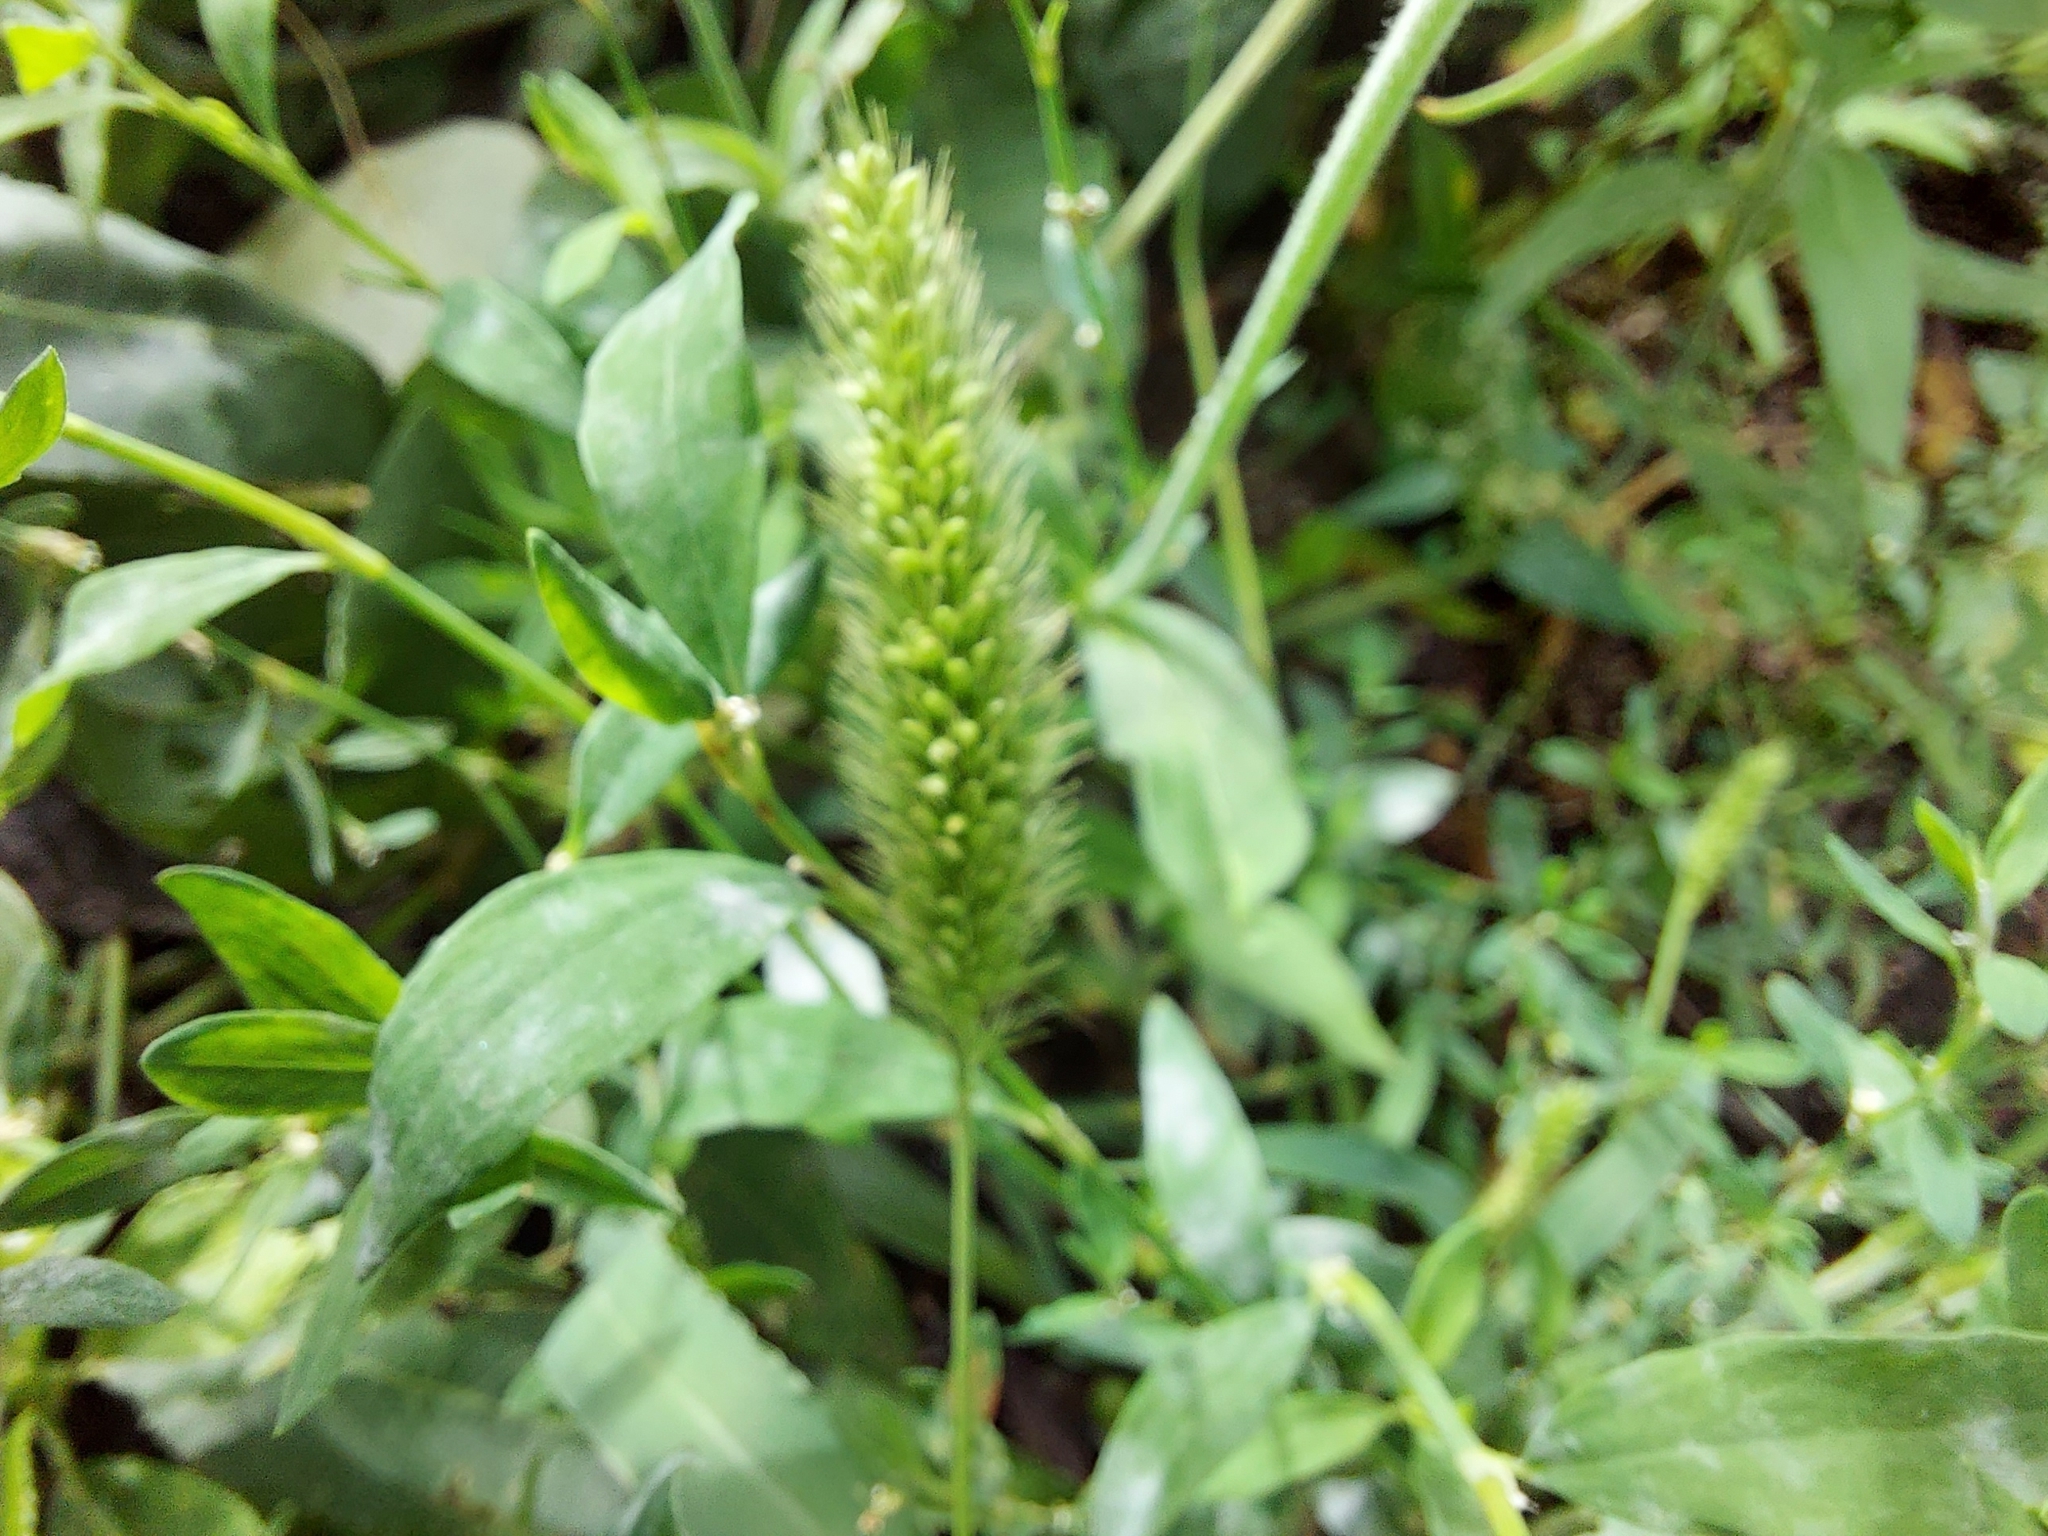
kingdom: Plantae
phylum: Tracheophyta
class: Liliopsida
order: Poales
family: Poaceae
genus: Setaria
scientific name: Setaria viridis
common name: Green bristlegrass
